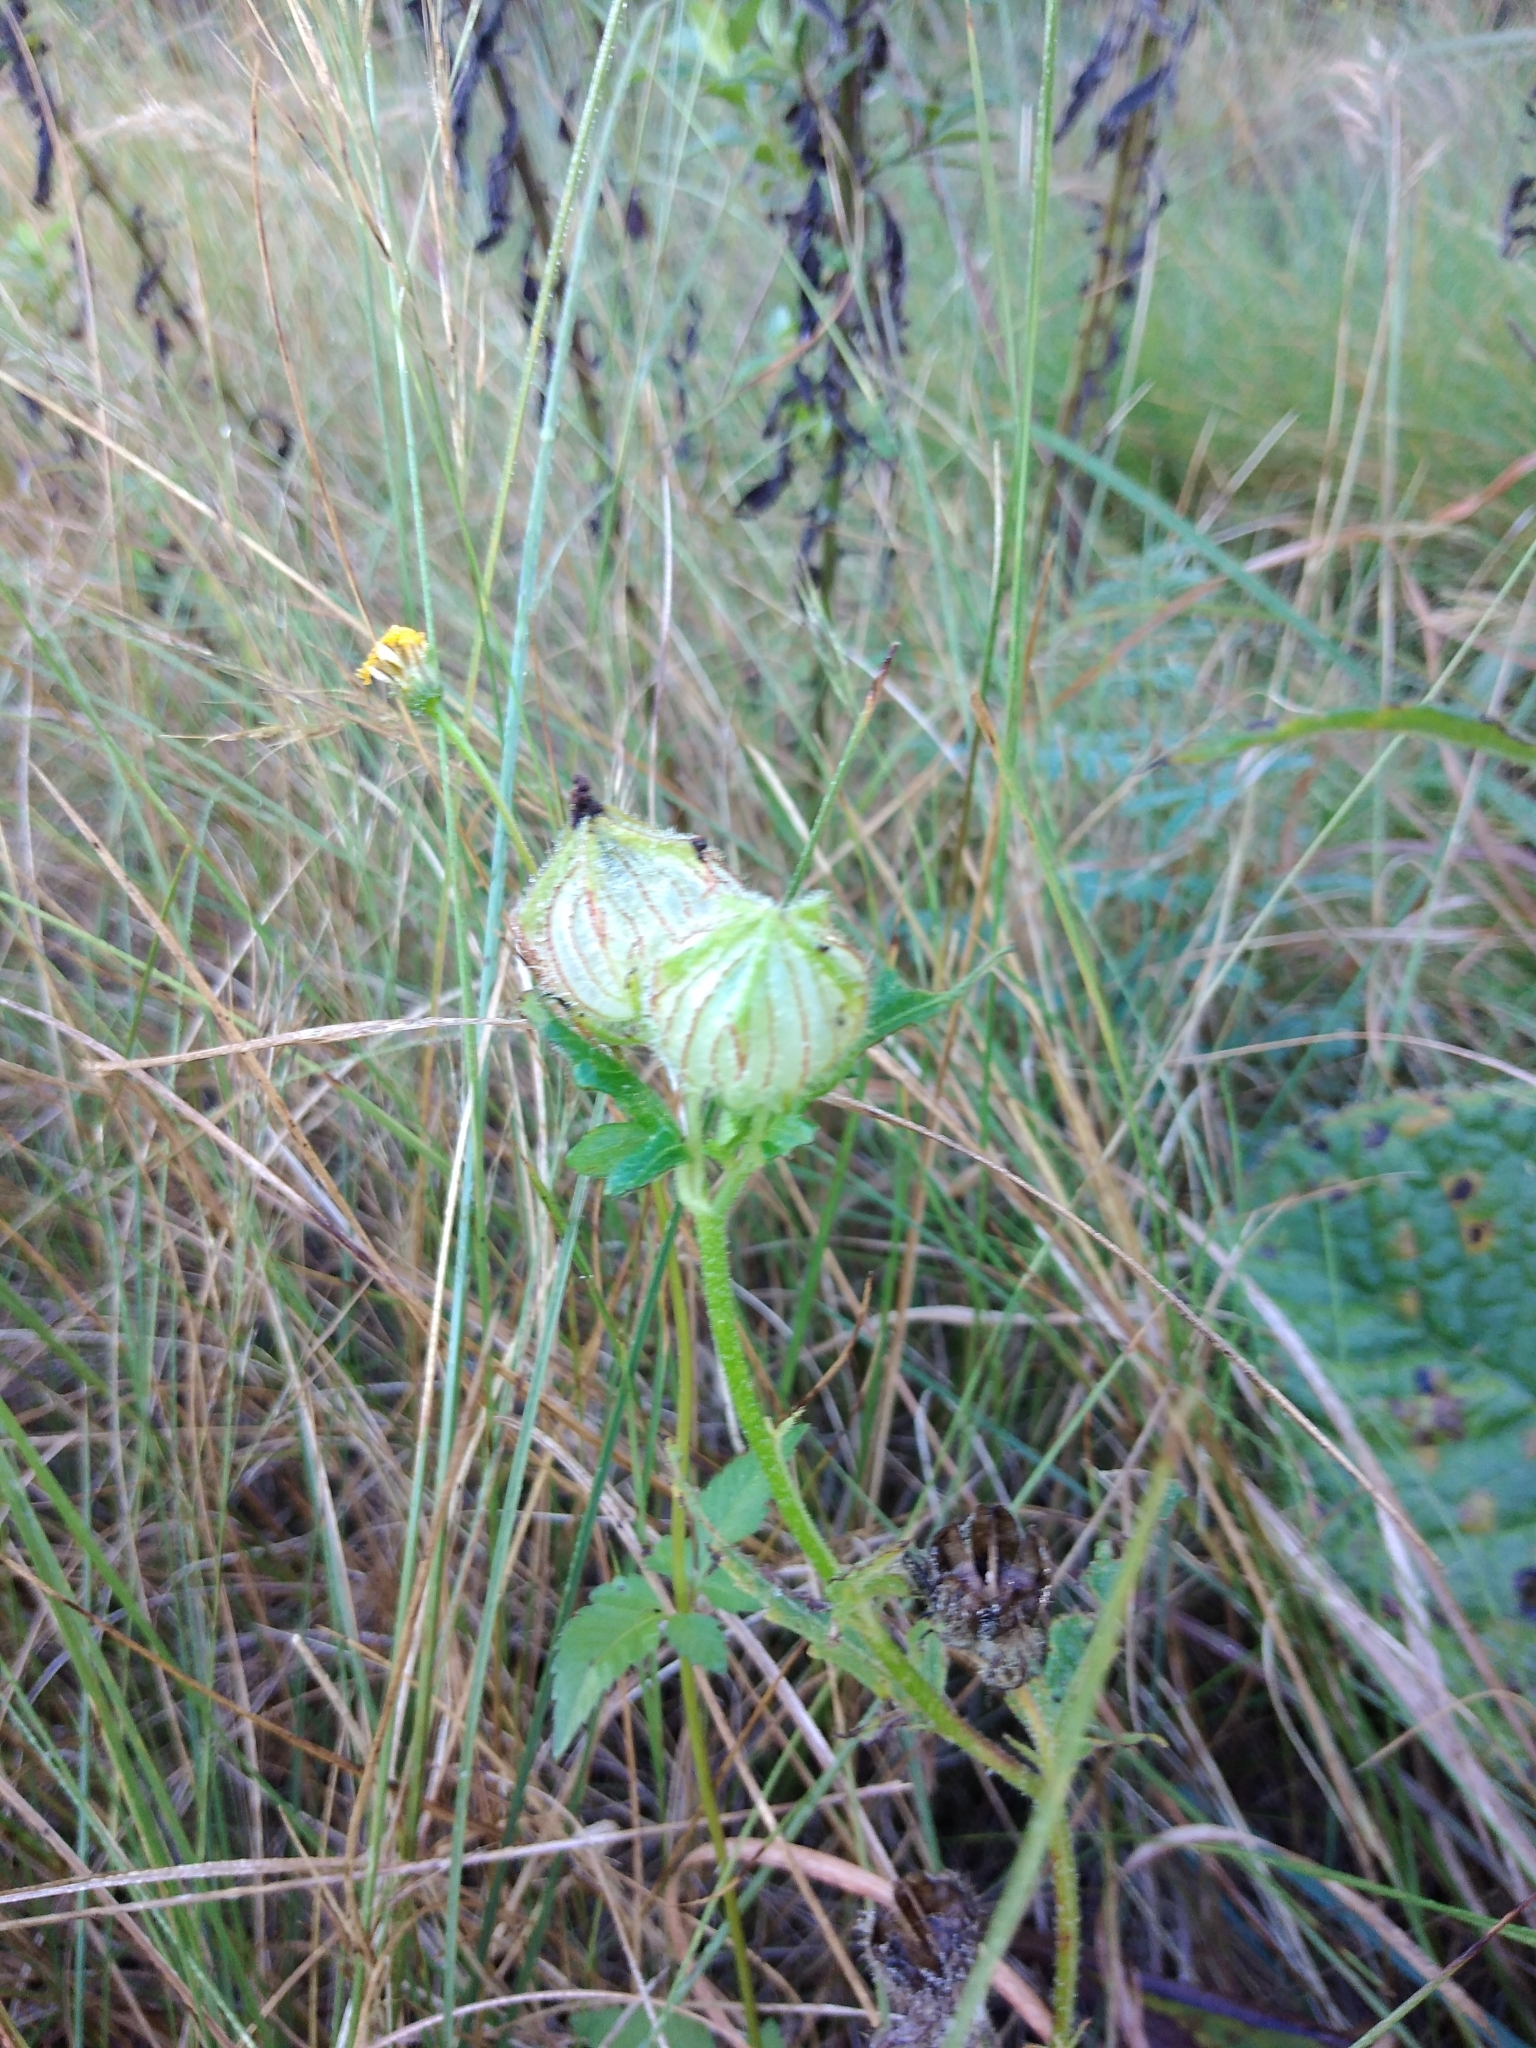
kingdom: Plantae
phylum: Tracheophyta
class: Magnoliopsida
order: Malvales
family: Malvaceae
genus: Hibiscus
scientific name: Hibiscus trionum
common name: Bladder ketmia
